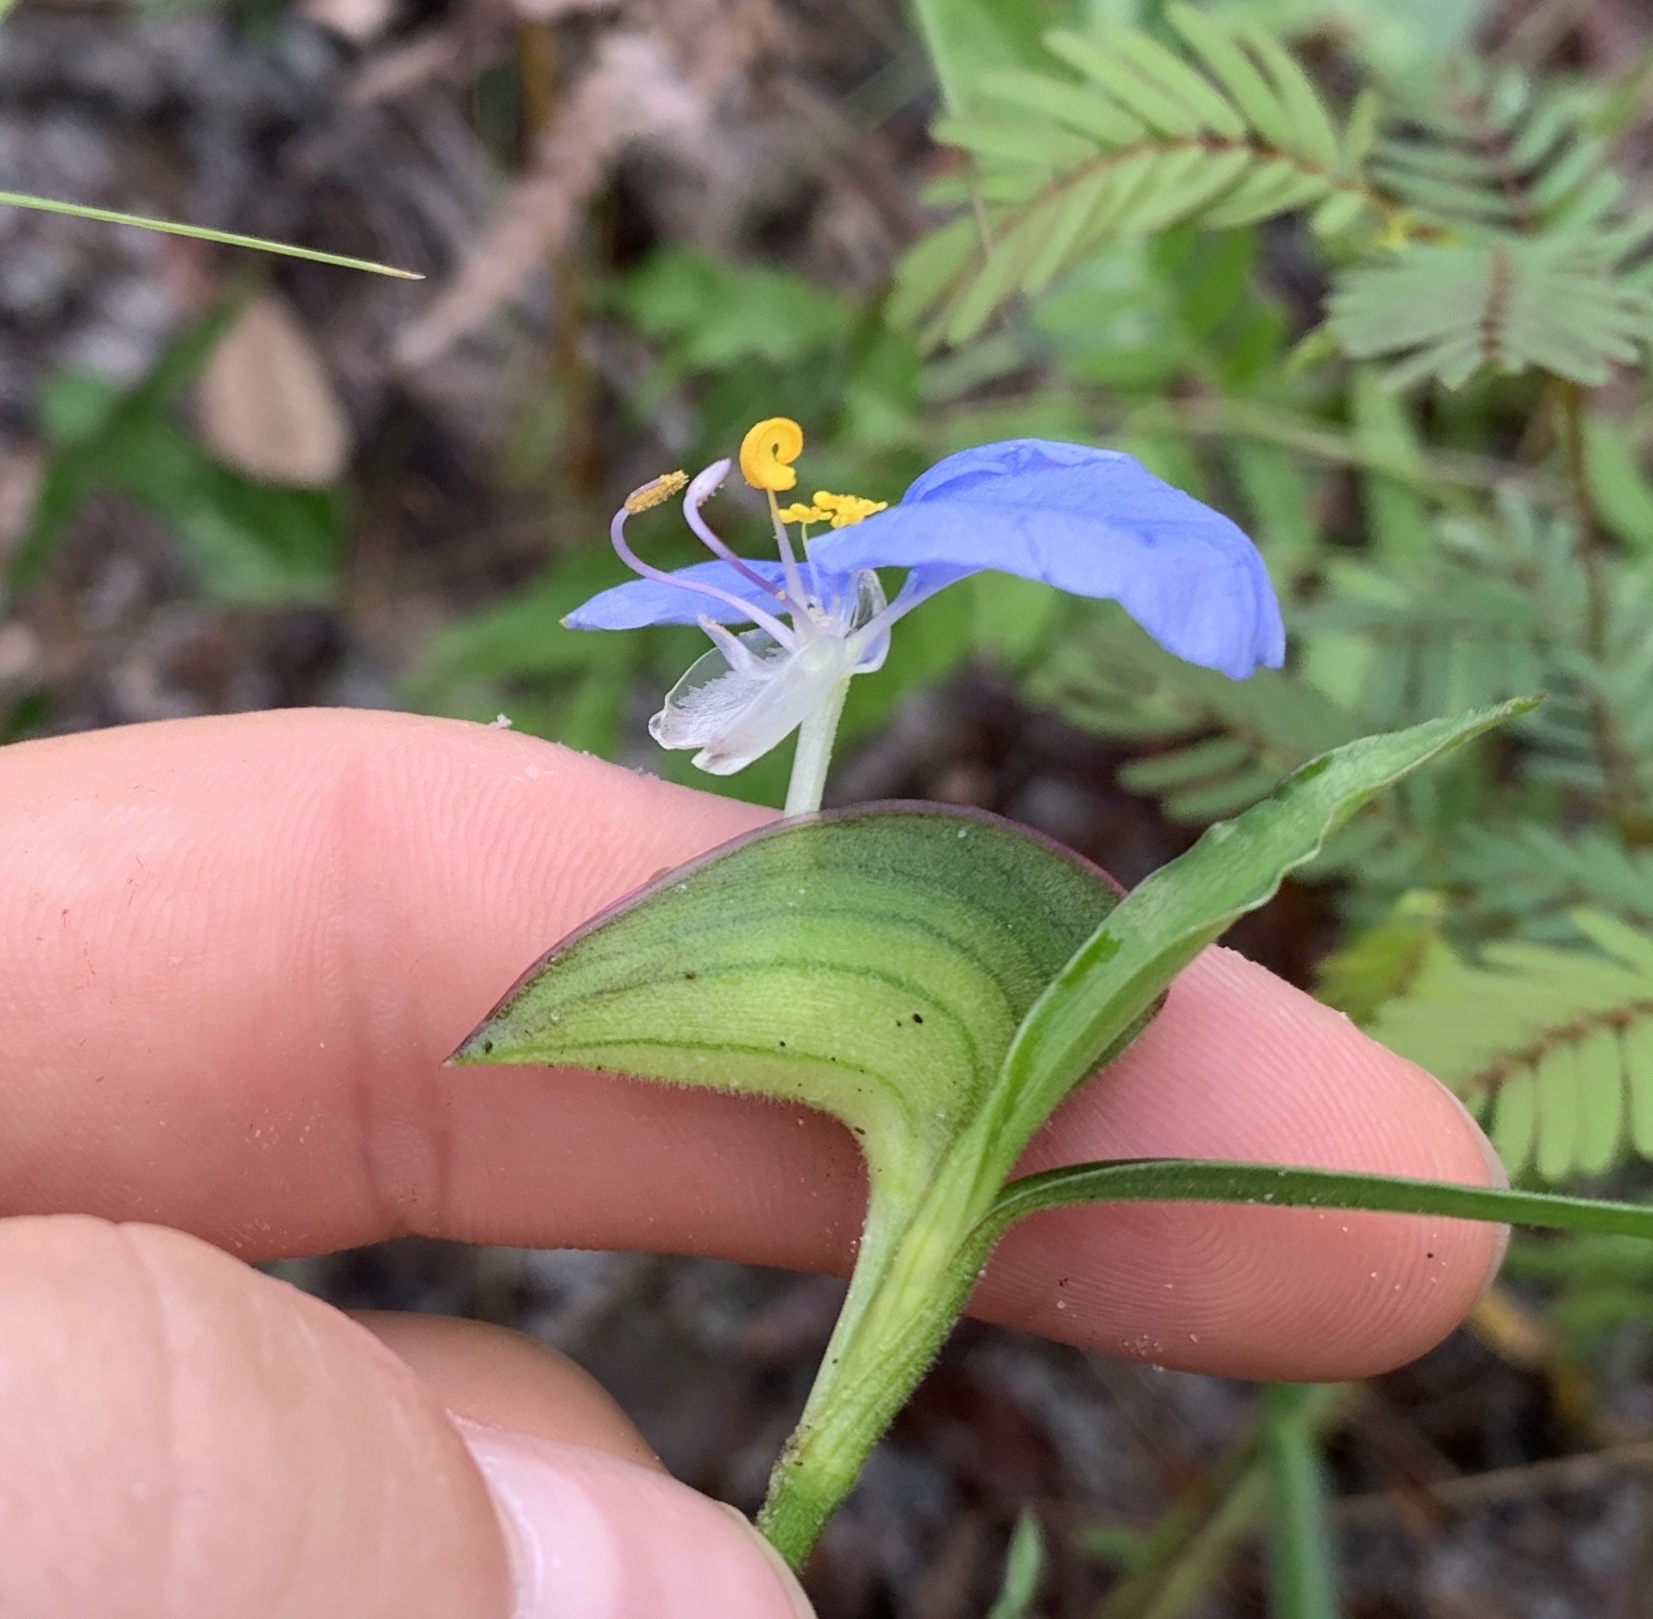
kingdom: Plantae
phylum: Tracheophyta
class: Liliopsida
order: Commelinales
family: Commelinaceae
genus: Commelina
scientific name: Commelina erecta
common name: Blousel blommetjie
